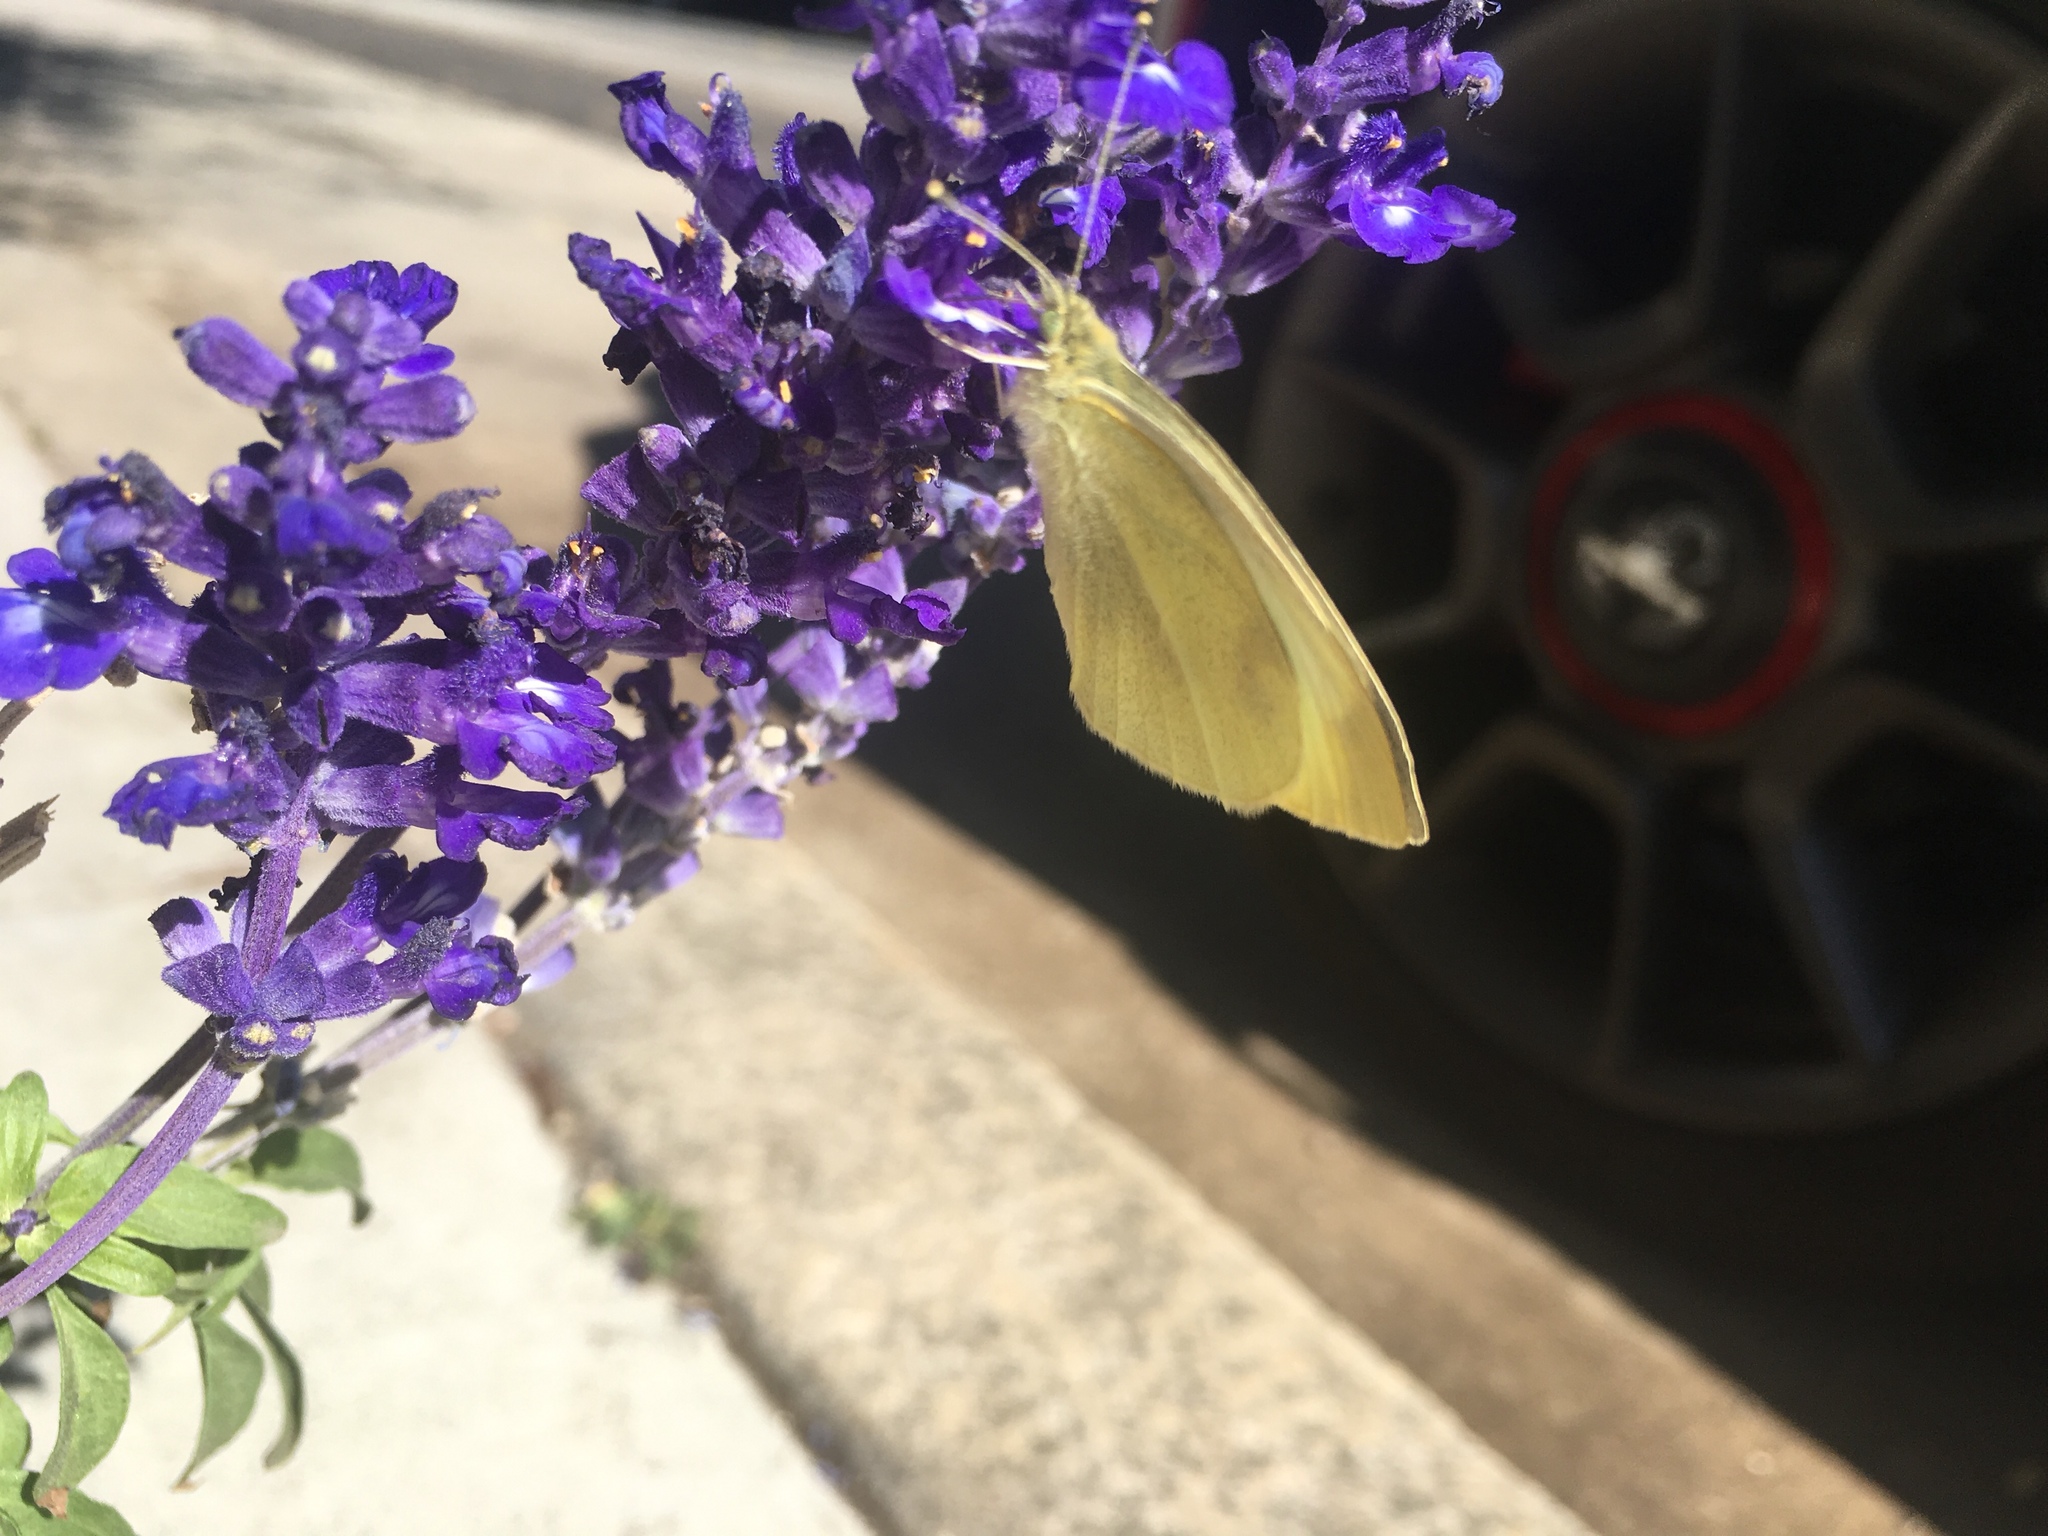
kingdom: Animalia
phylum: Arthropoda
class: Insecta
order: Lepidoptera
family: Pieridae
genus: Pieris
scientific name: Pieris rapae
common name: Small white
